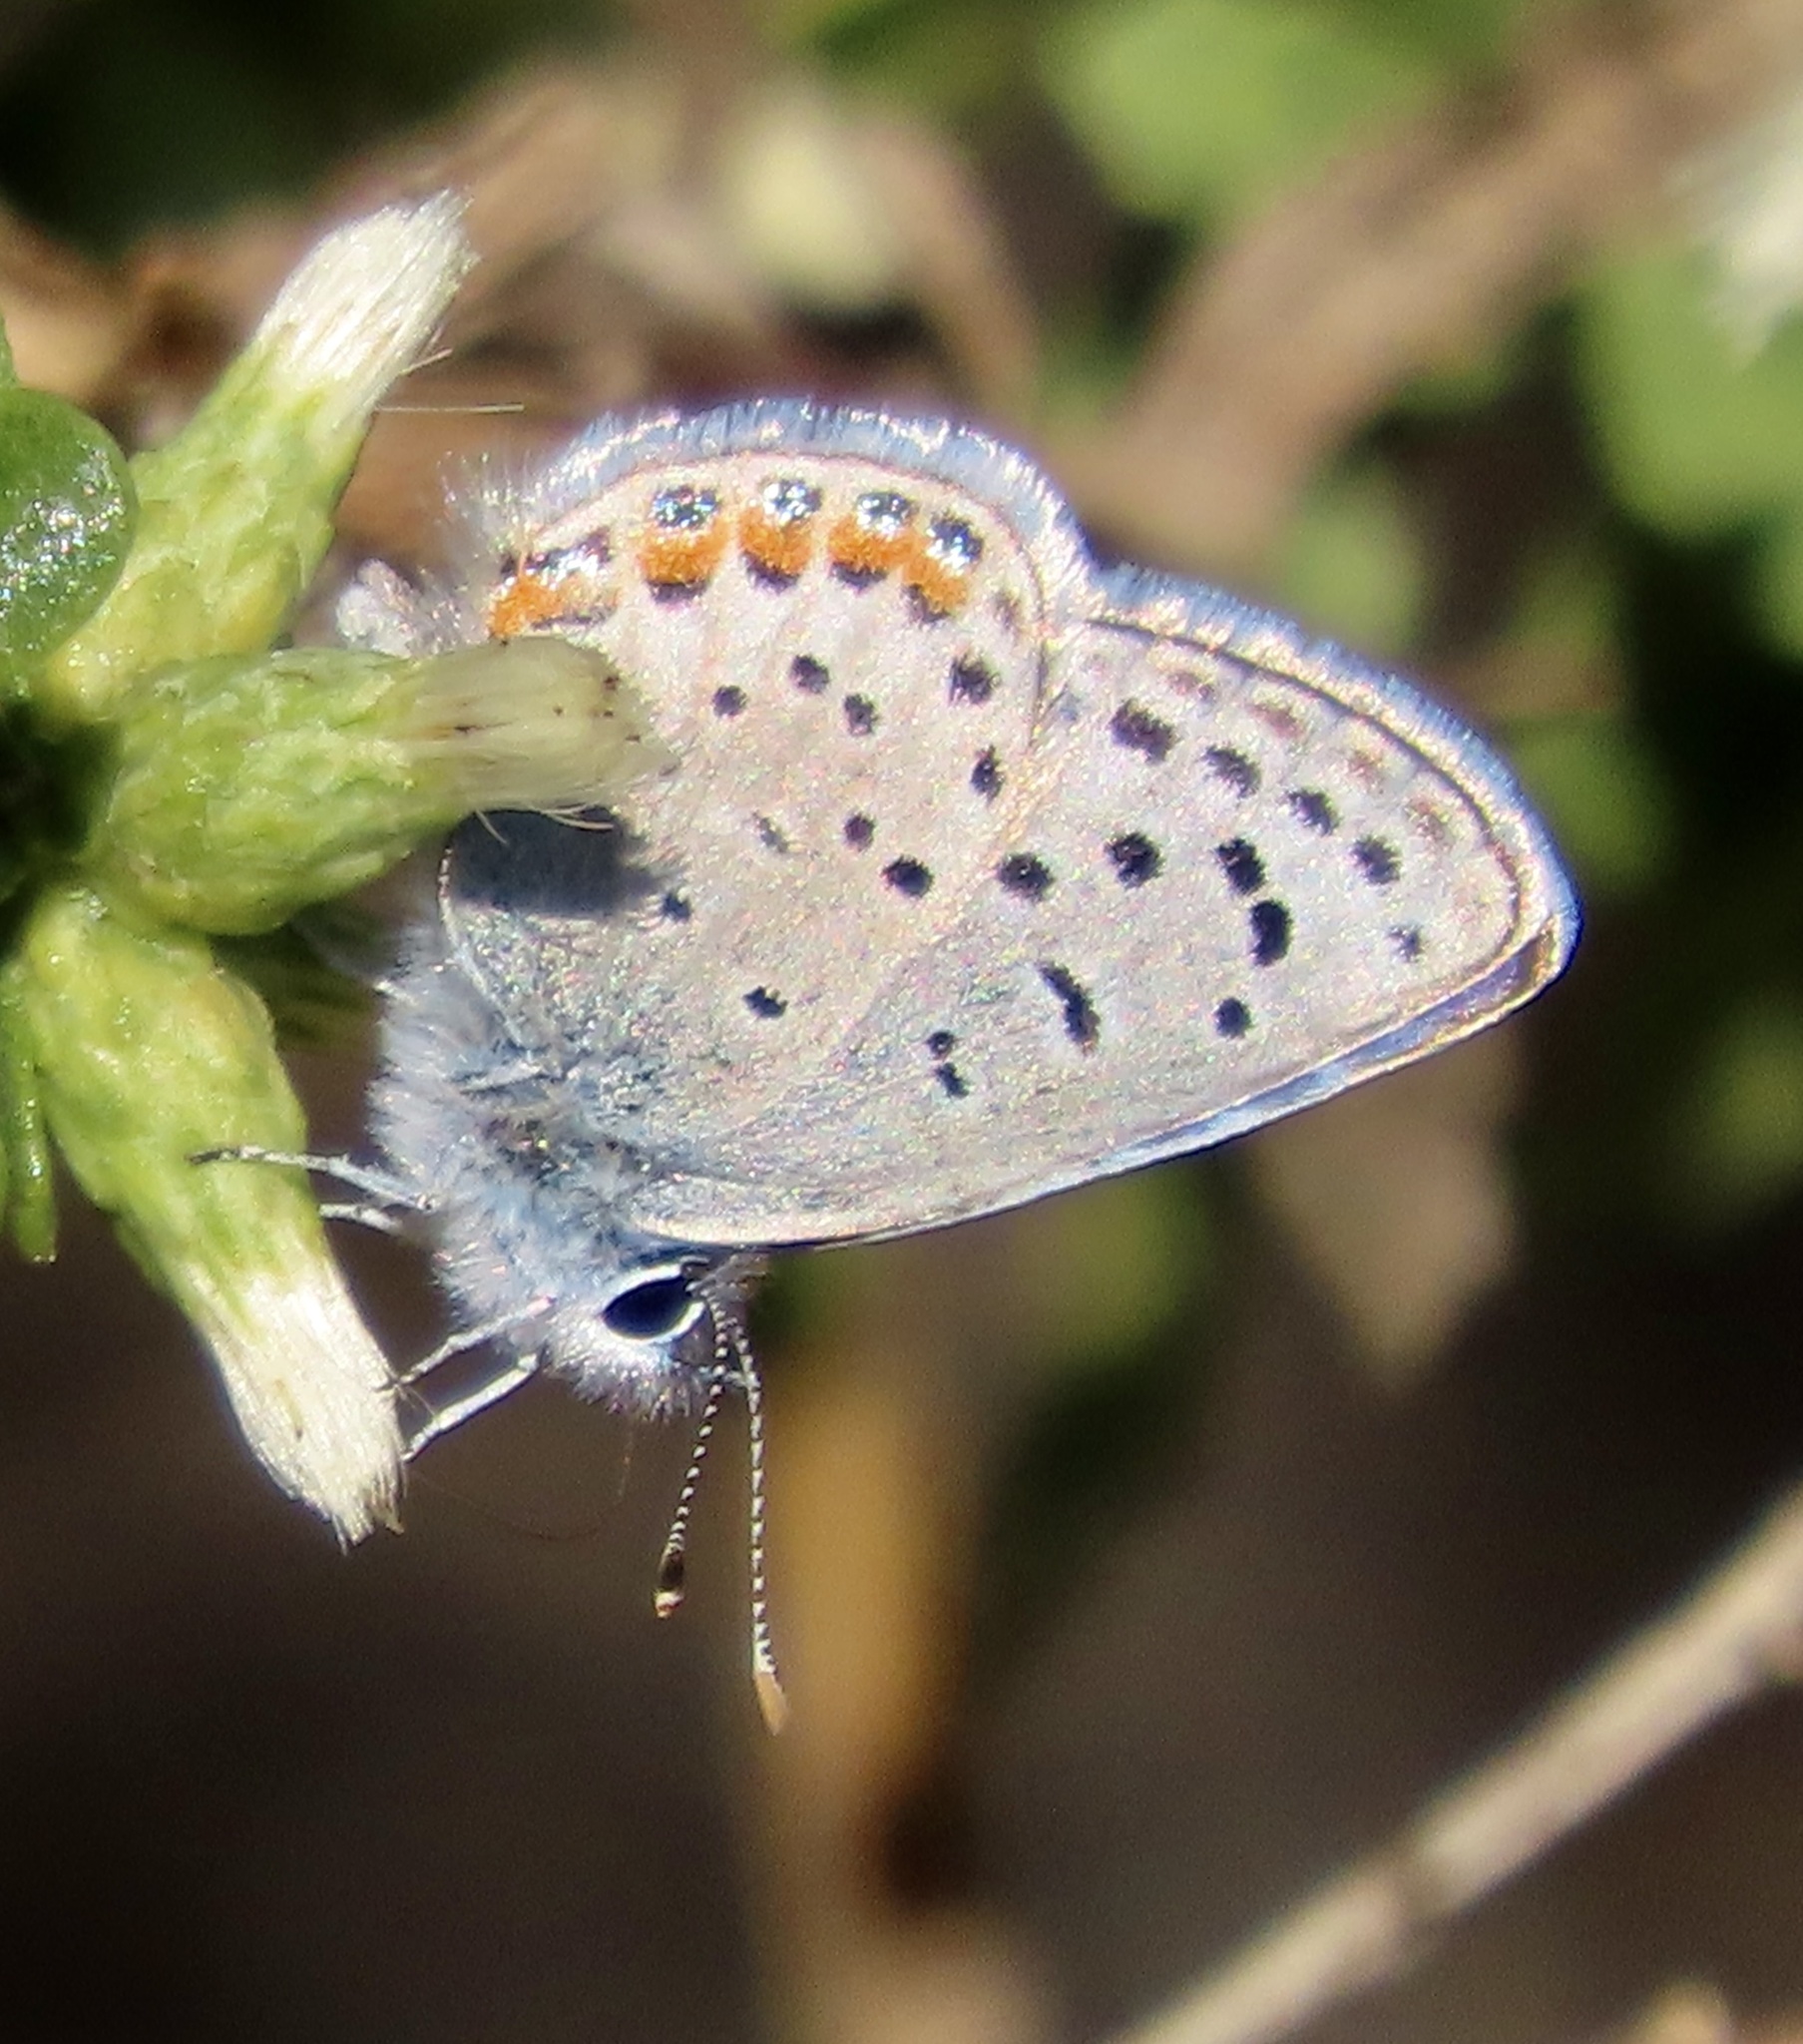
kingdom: Animalia
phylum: Arthropoda
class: Insecta
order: Lepidoptera
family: Lycaenidae
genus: Icaricia
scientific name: Icaricia acmon
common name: Acmon blue
